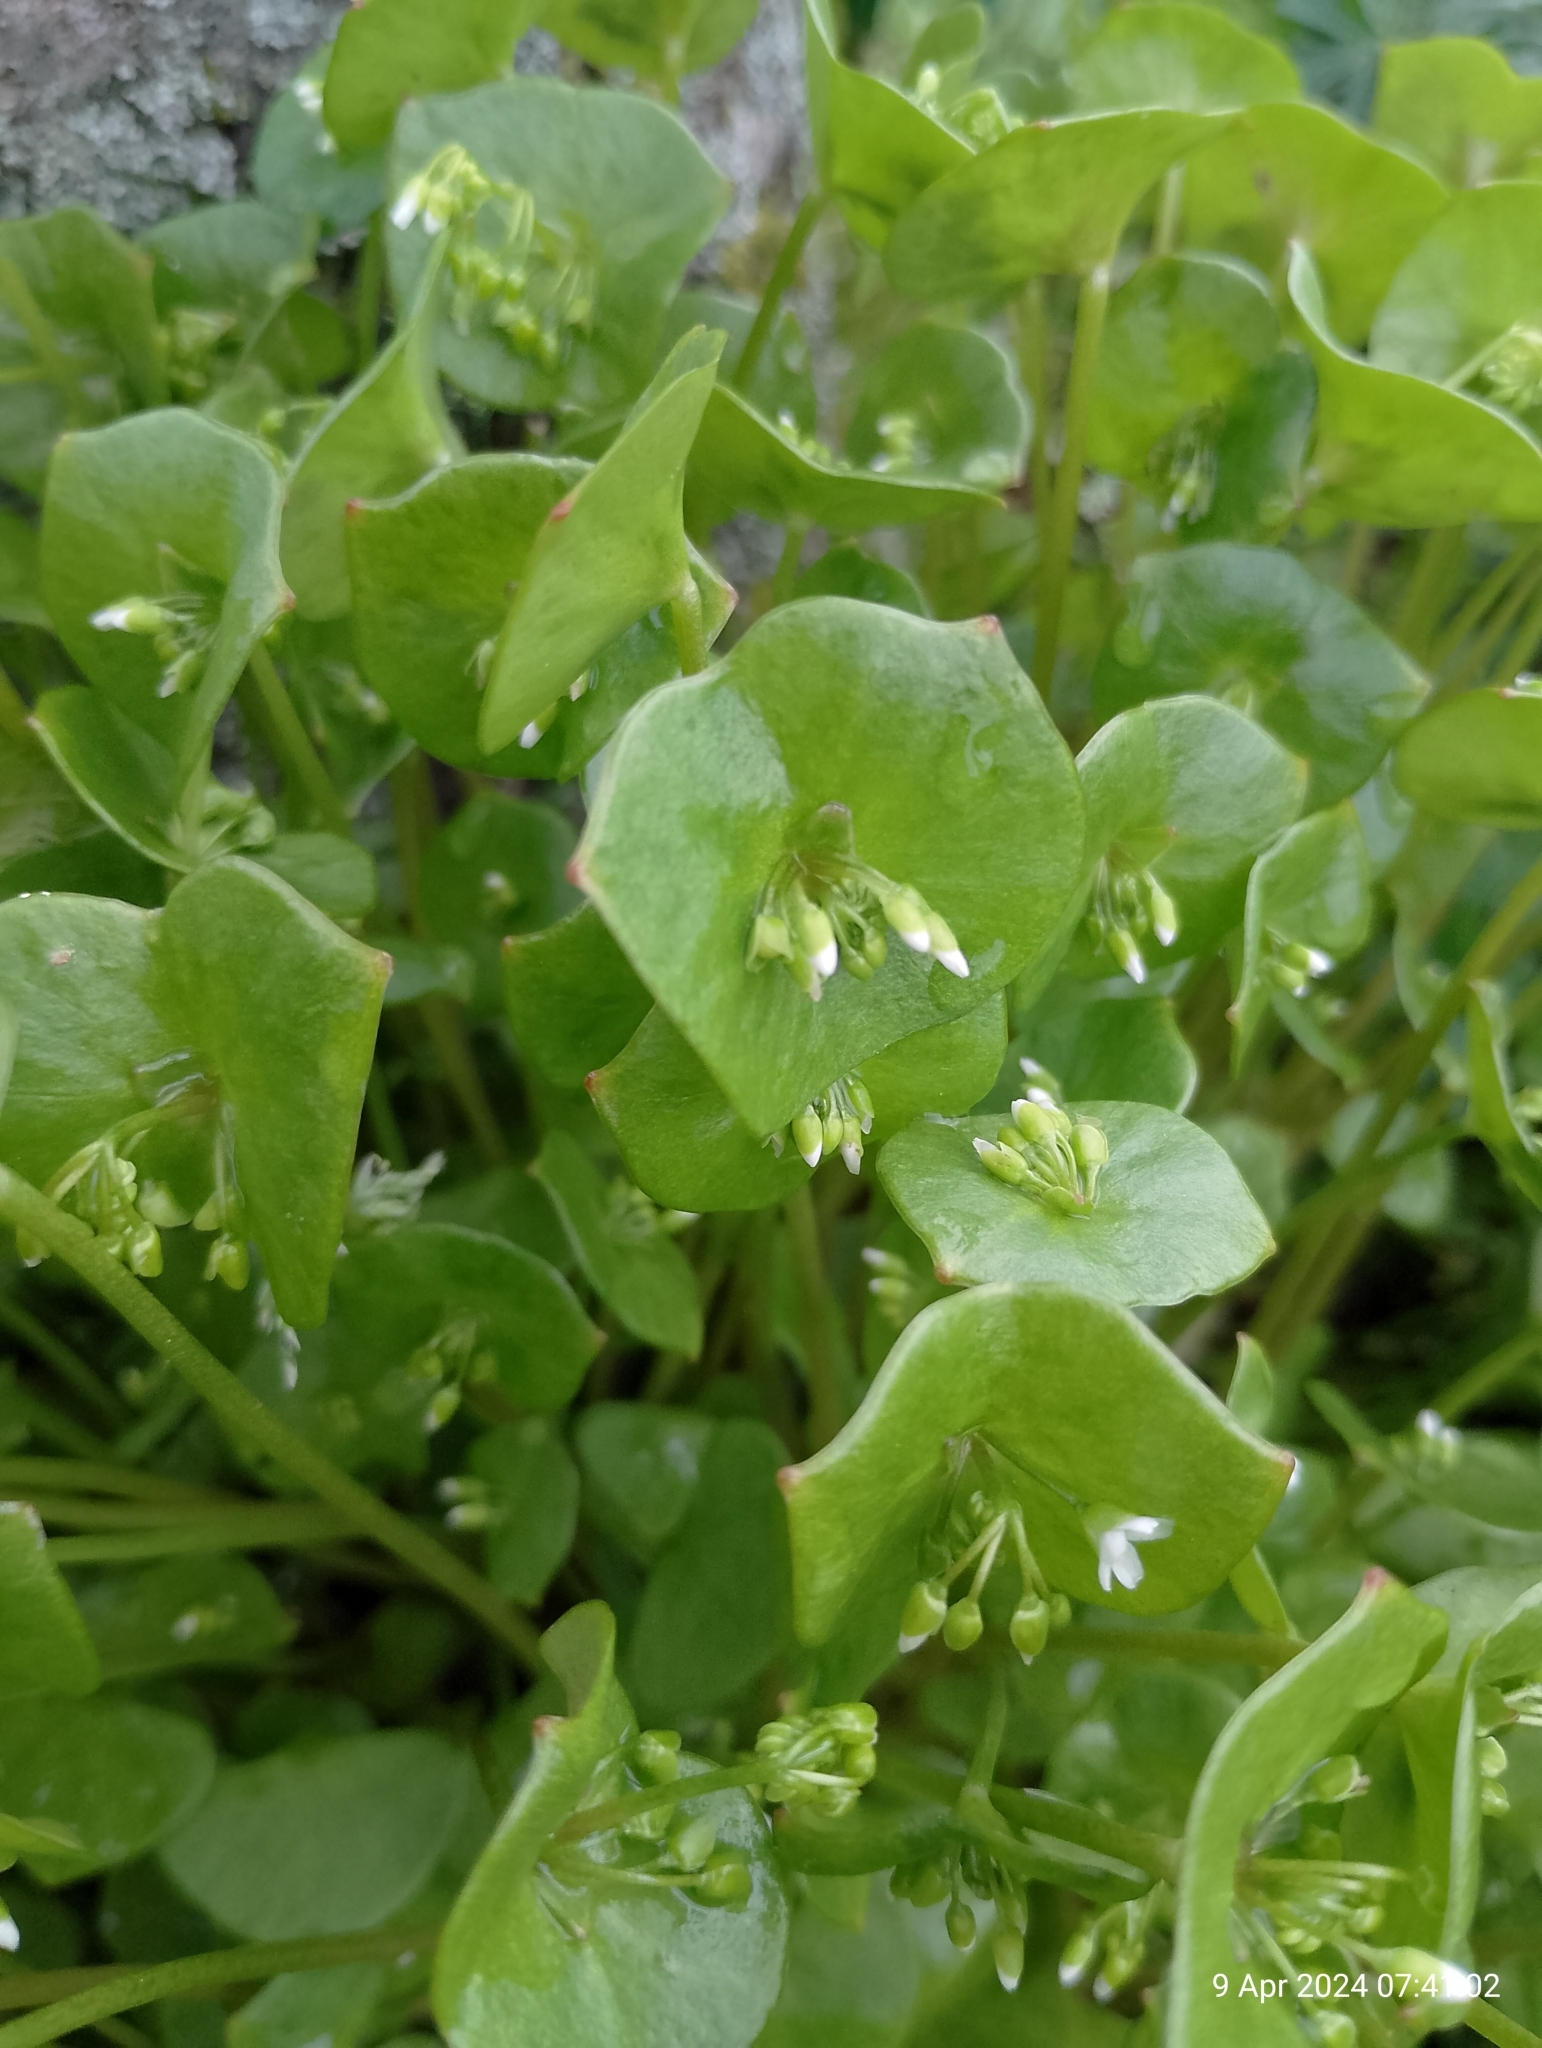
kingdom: Plantae
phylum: Tracheophyta
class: Magnoliopsida
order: Caryophyllales
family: Montiaceae
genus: Claytonia
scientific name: Claytonia perfoliata
